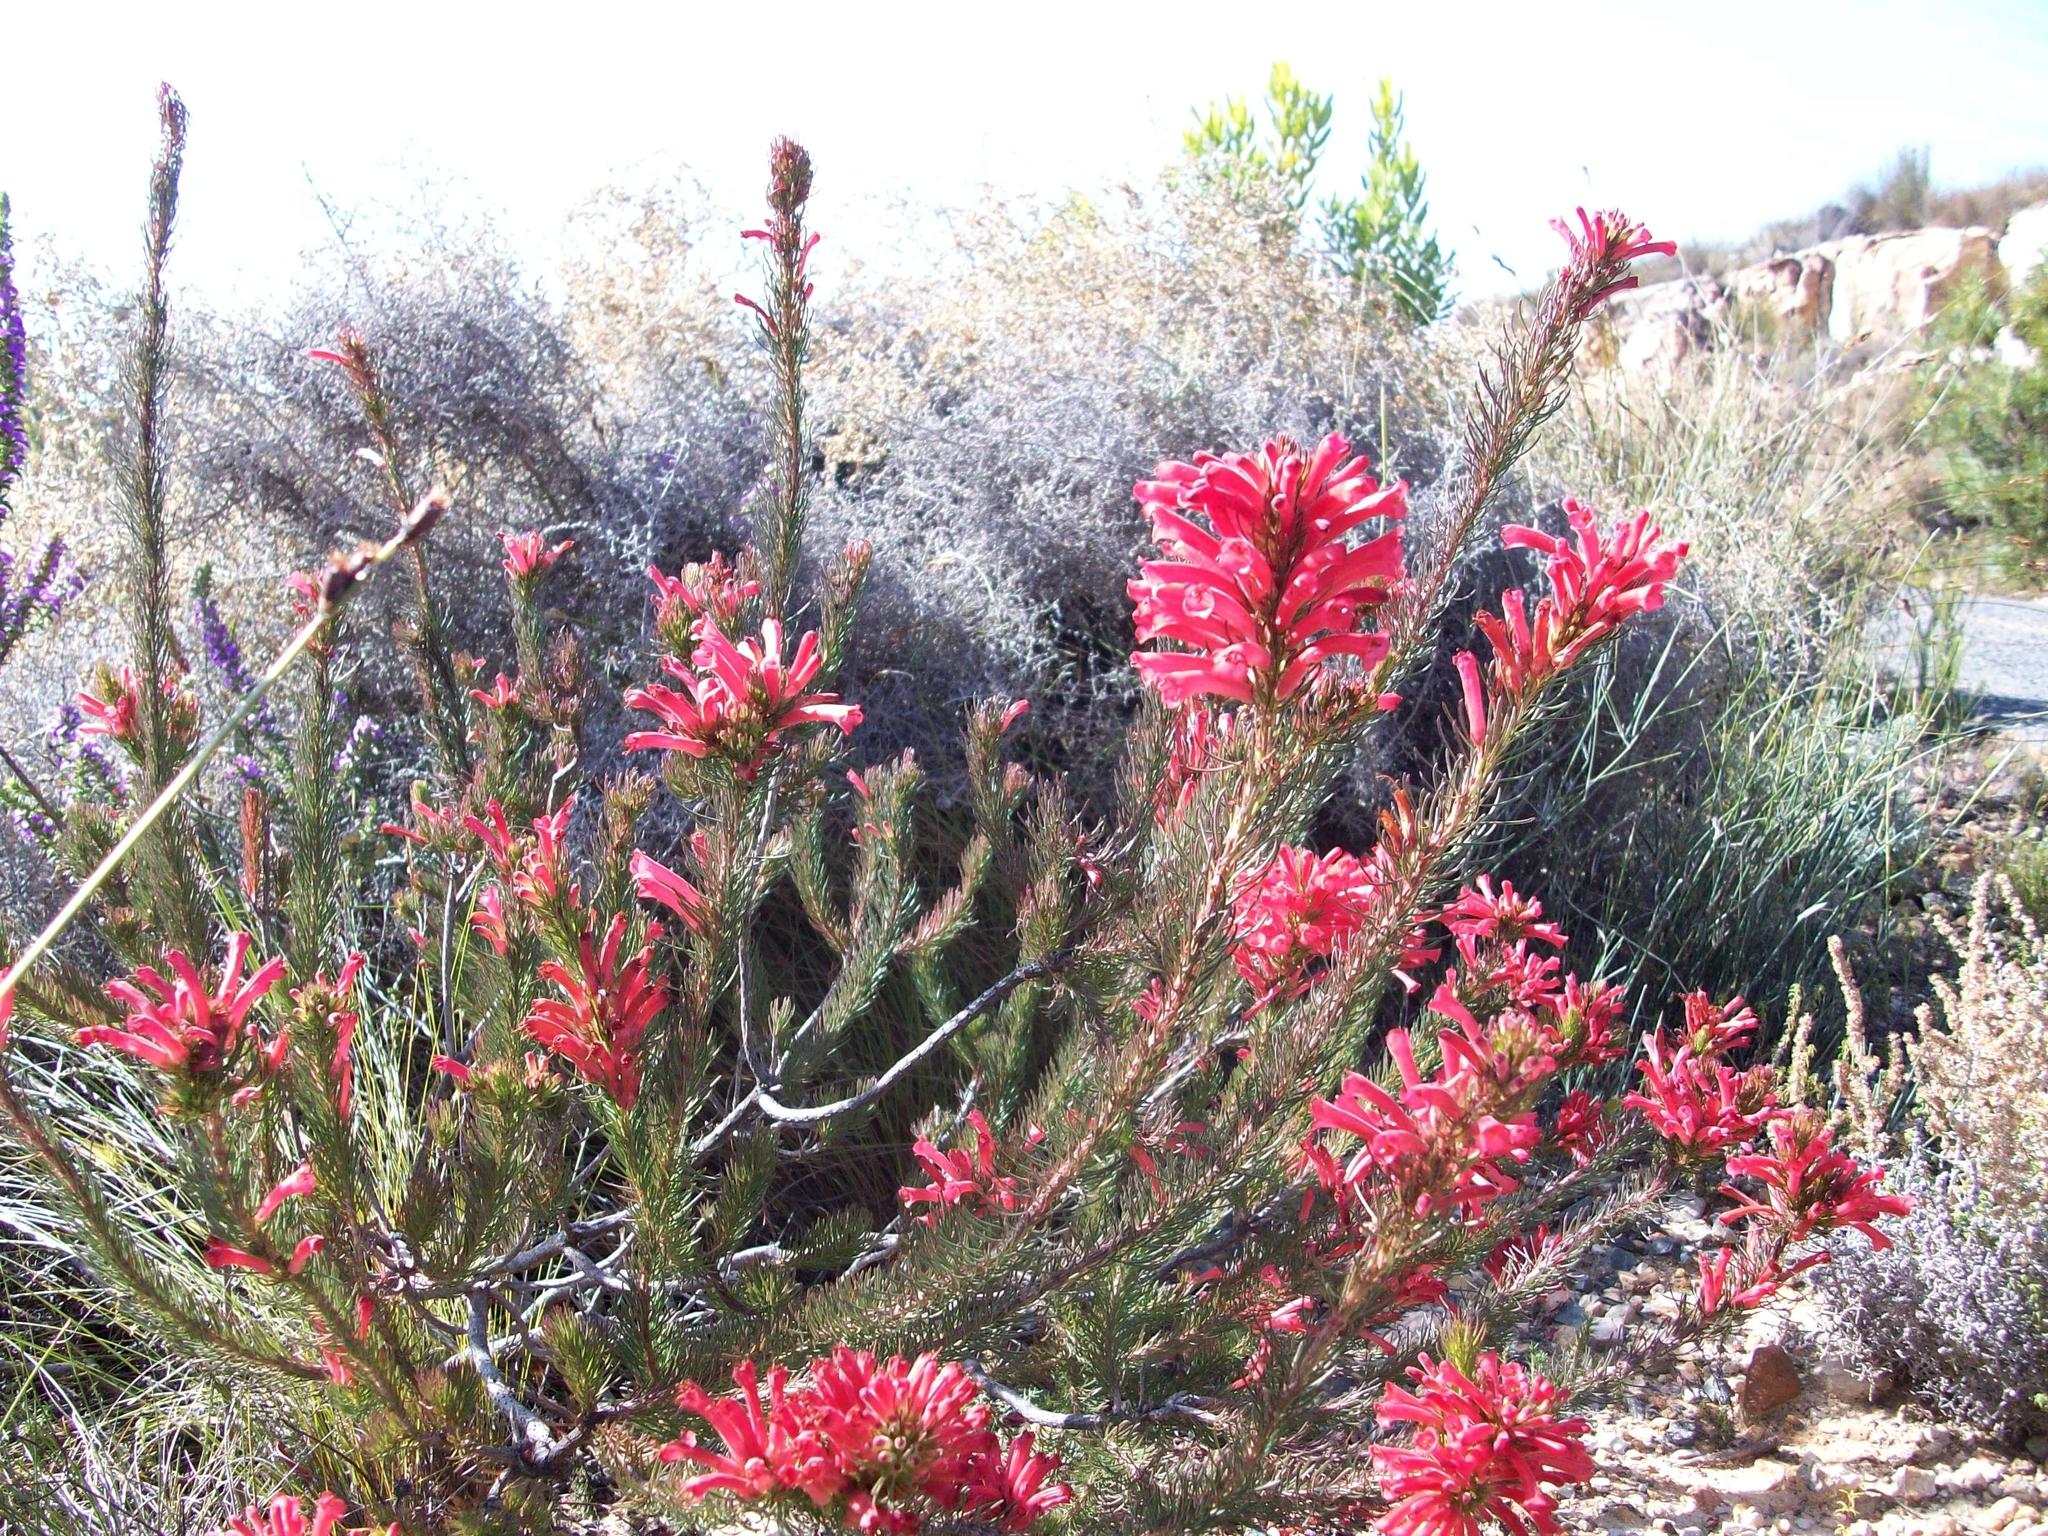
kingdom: Plantae
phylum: Tracheophyta
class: Magnoliopsida
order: Ericales
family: Ericaceae
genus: Erica
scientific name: Erica vestita
